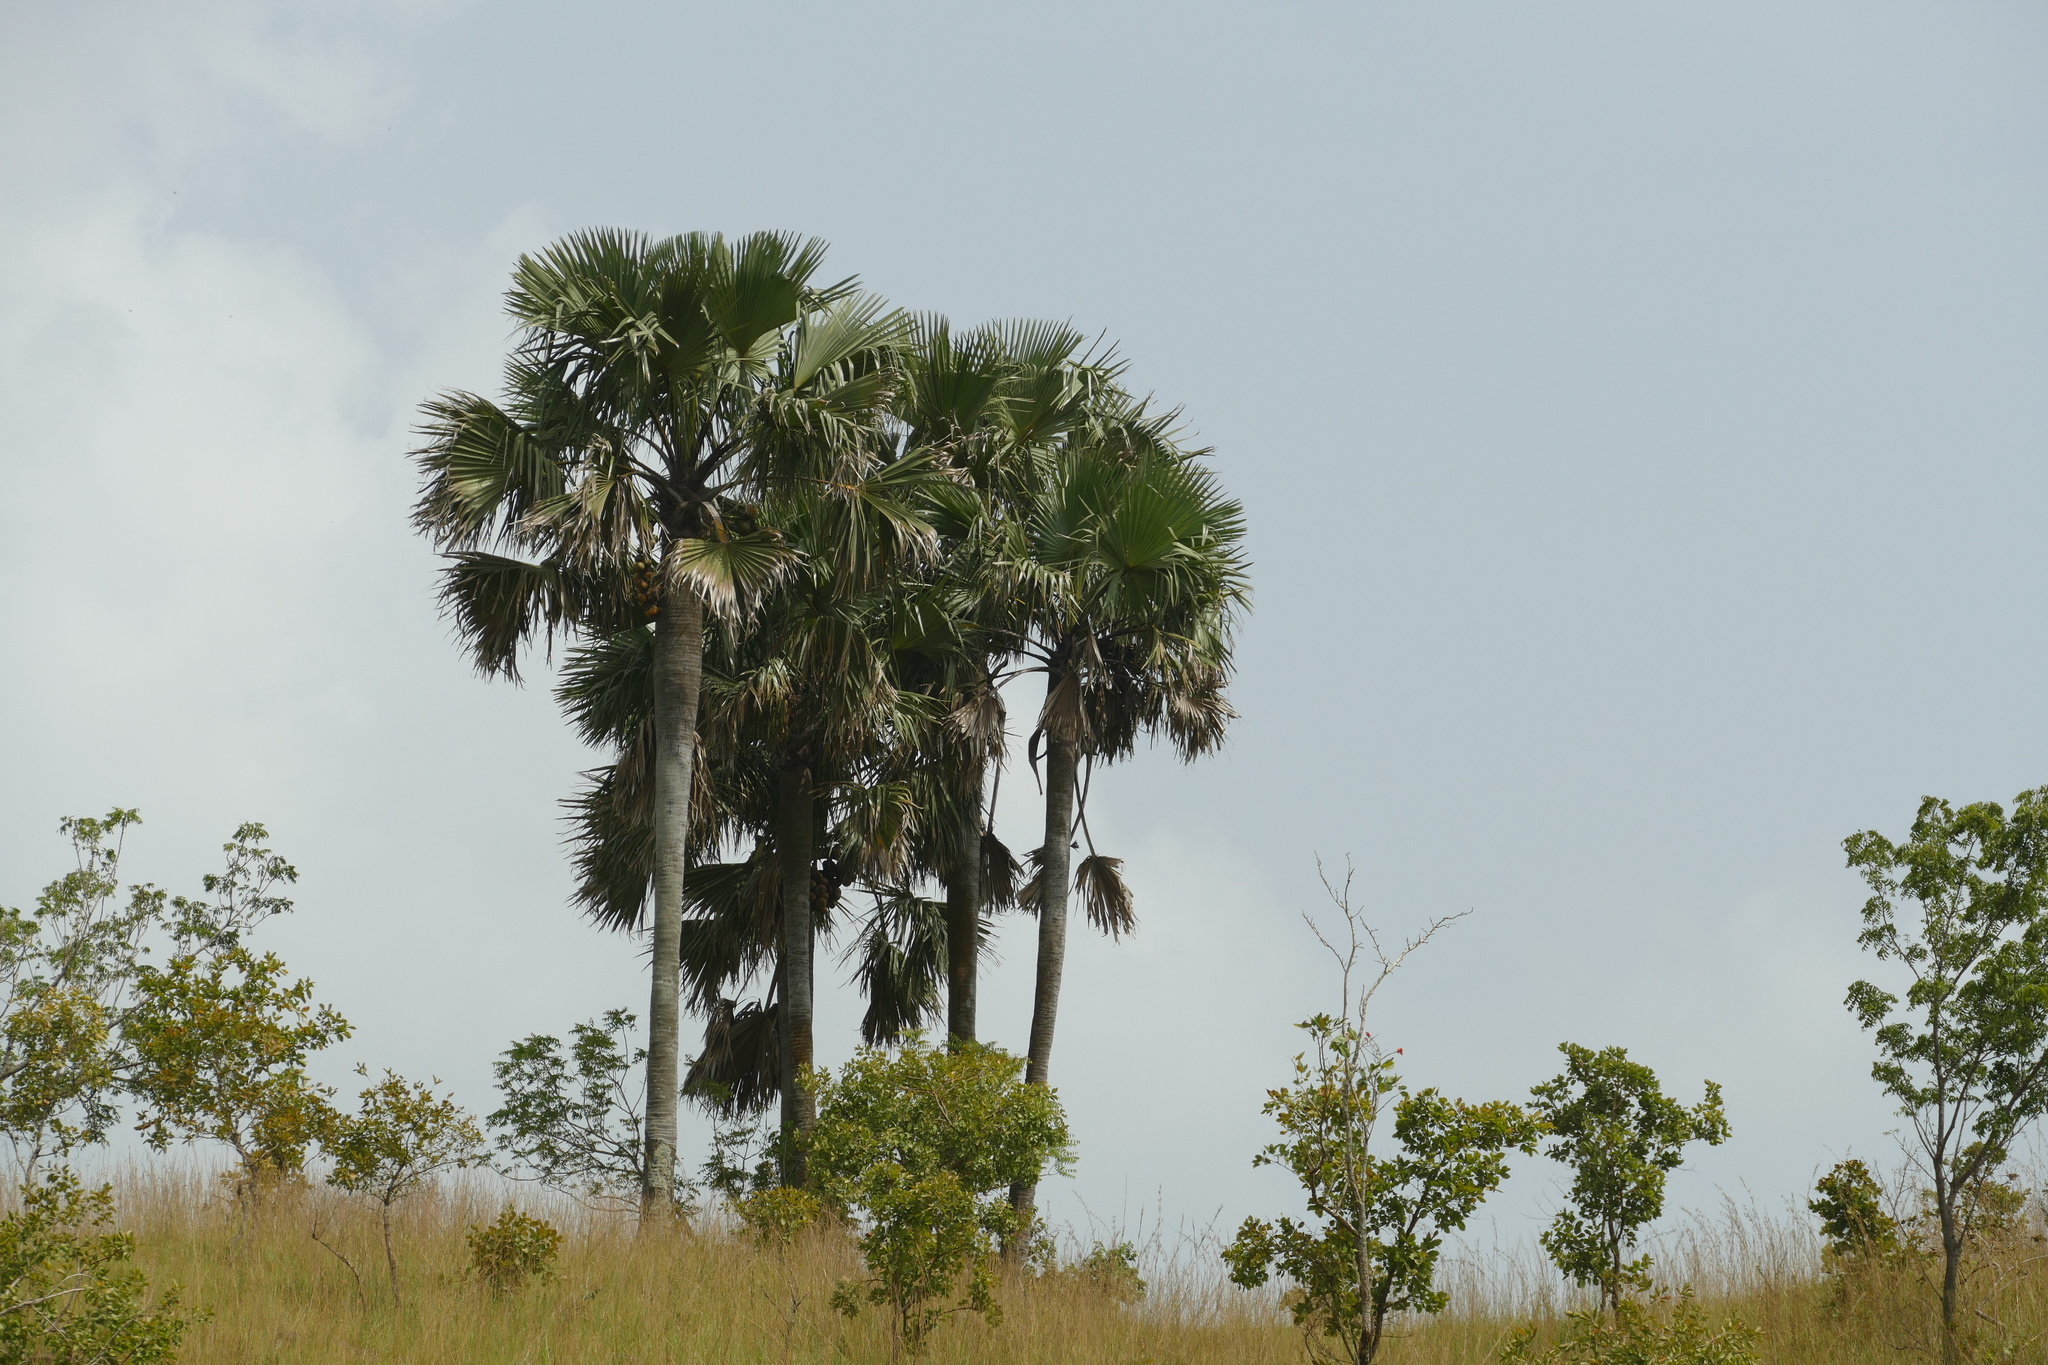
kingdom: Plantae
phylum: Tracheophyta
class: Liliopsida
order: Arecales
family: Arecaceae
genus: Borassus
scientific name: Borassus aethiopum
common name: Elephant palm
